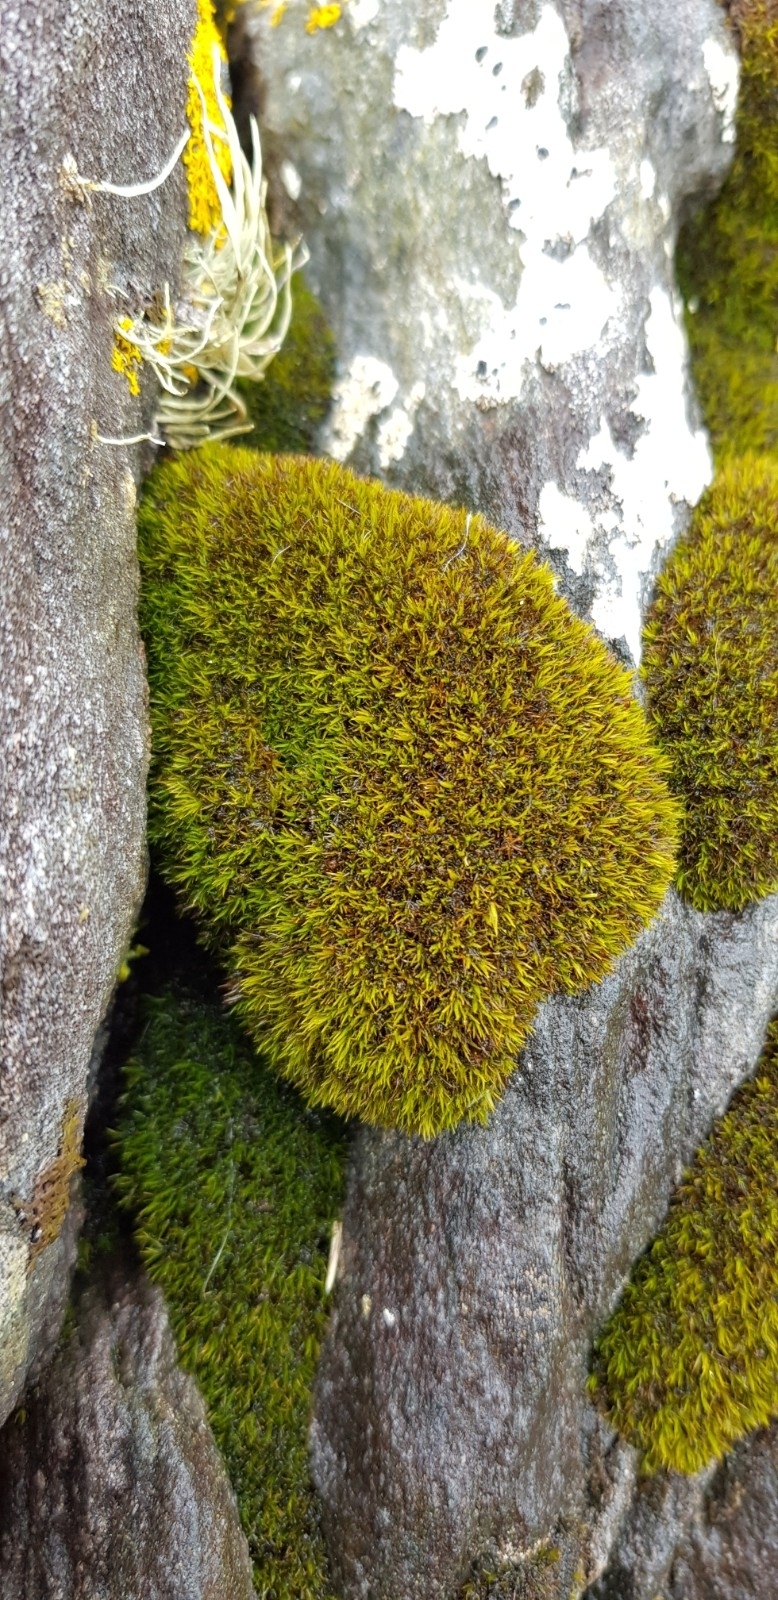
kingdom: Plantae
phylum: Bryophyta
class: Bryopsida
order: Grimmiales
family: Grimmiaceae
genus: Schistidium
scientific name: Schistidium maritimum
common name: Seaside bloom moss
